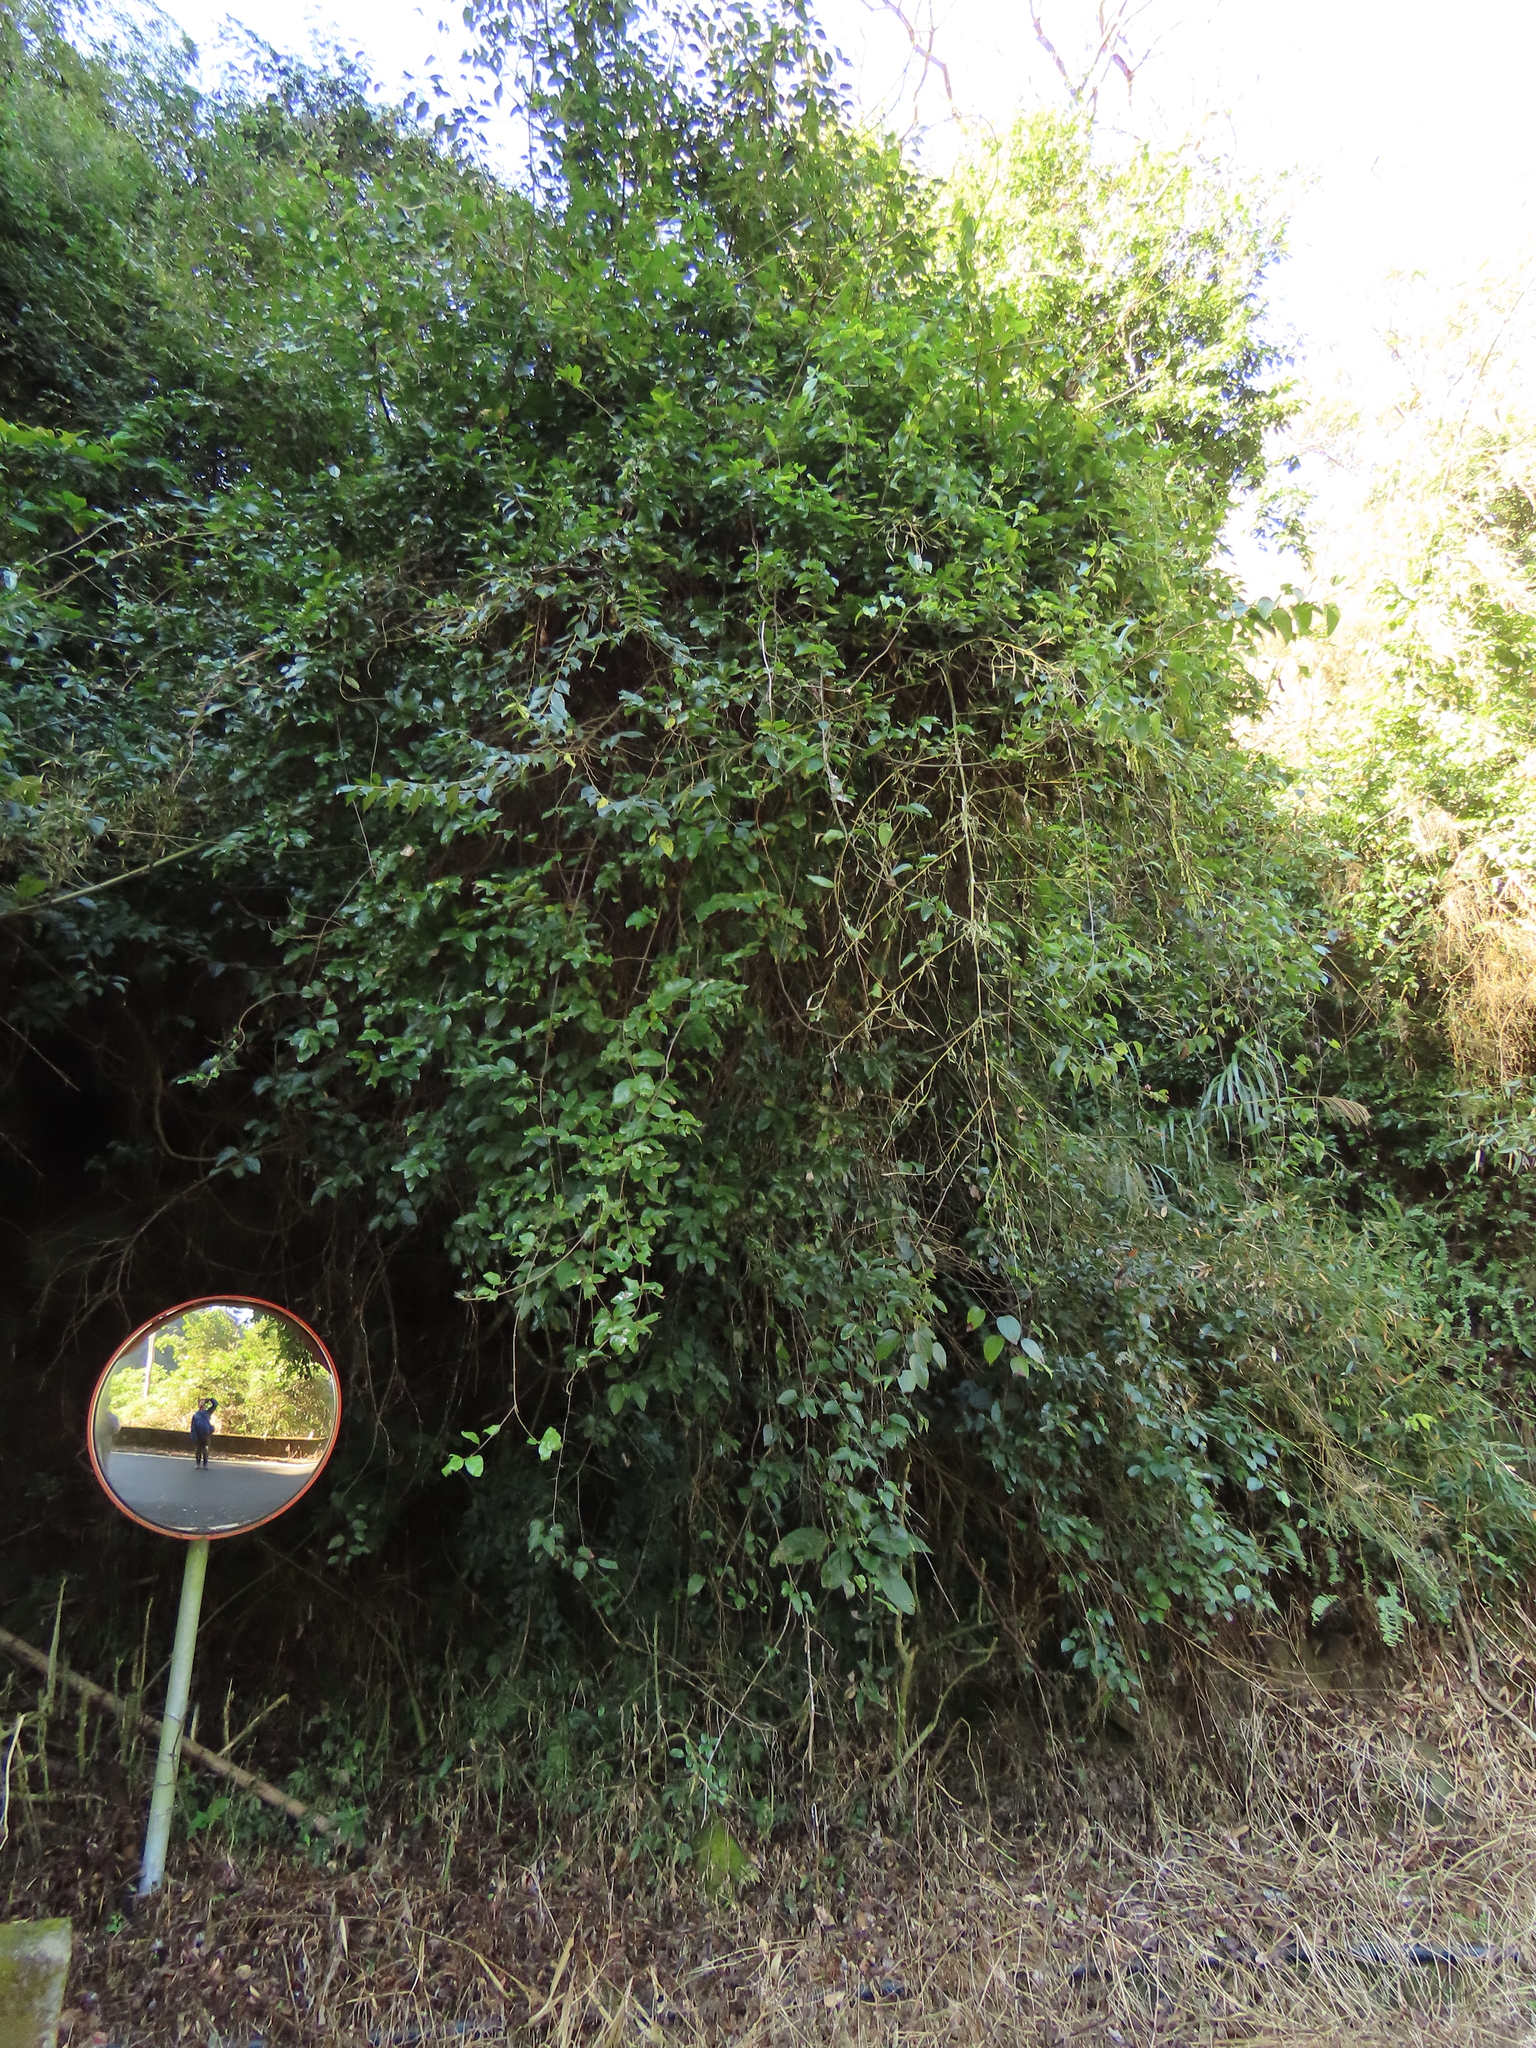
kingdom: Plantae
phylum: Tracheophyta
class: Magnoliopsida
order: Fabales
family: Fabaceae
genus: Phanera
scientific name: Phanera championii
